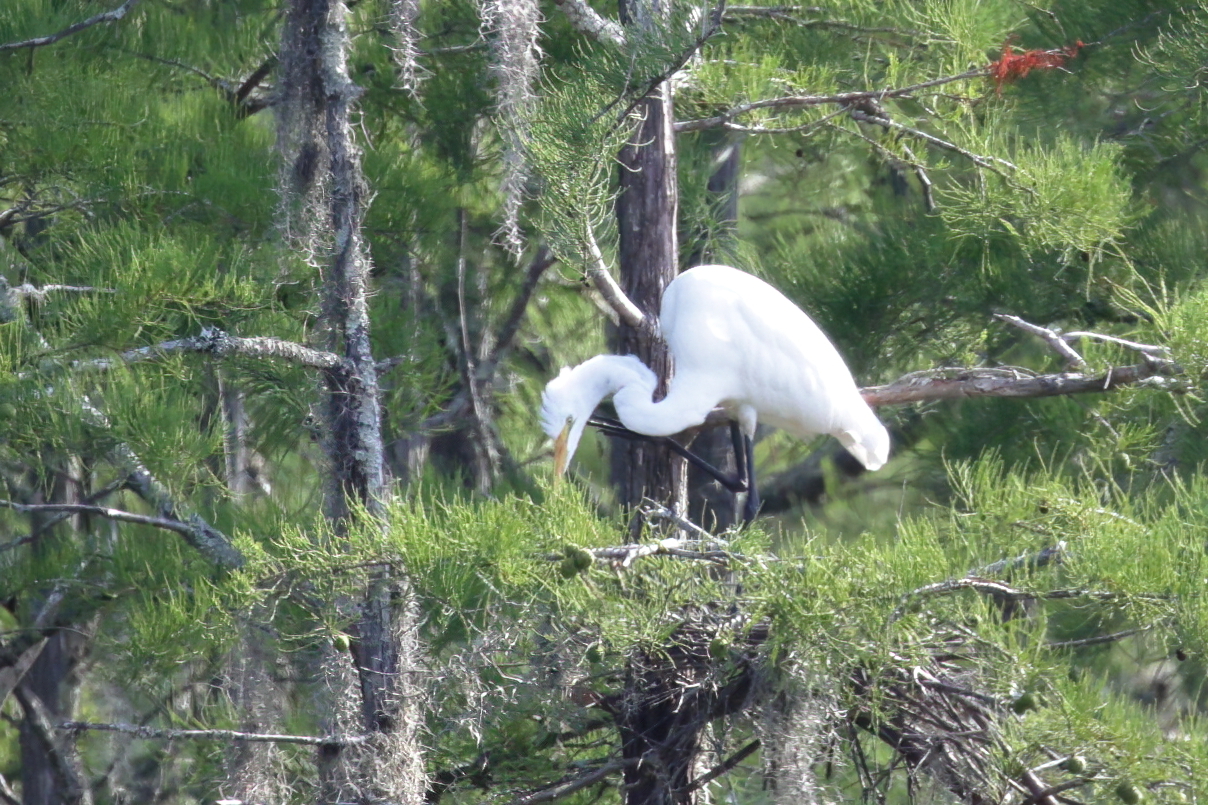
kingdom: Animalia
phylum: Chordata
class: Aves
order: Pelecaniformes
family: Ardeidae
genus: Ardea
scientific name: Ardea alba
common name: Great egret
